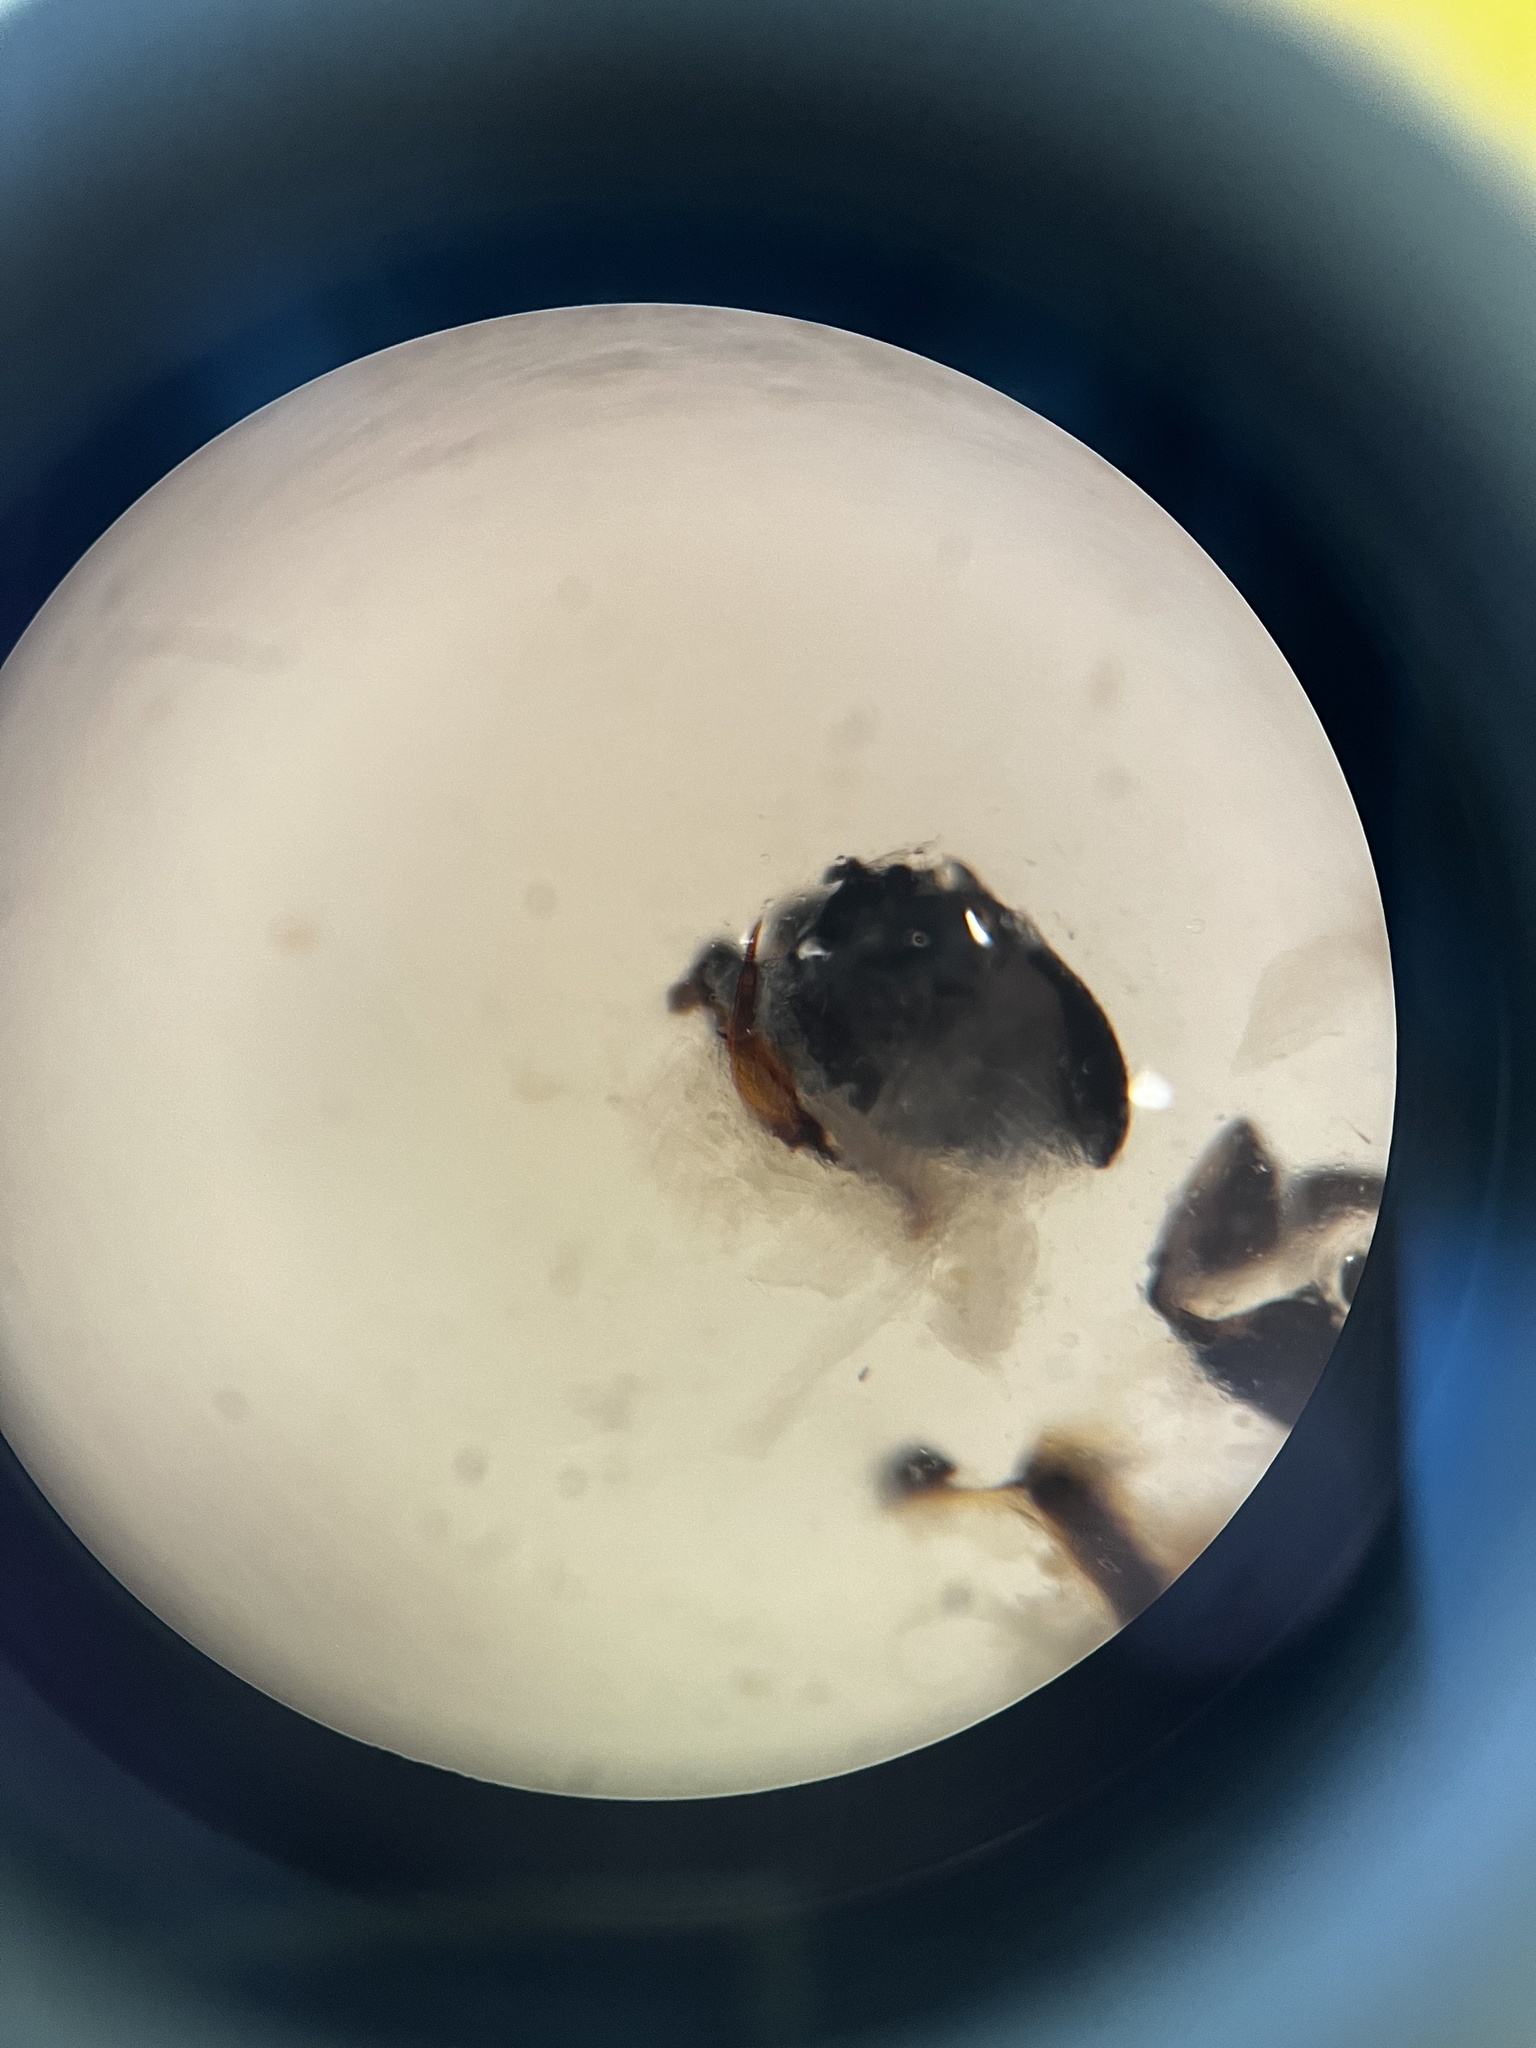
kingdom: Animalia
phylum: Arthropoda
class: Insecta
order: Hemiptera
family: Delphacidae
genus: Laodelphax
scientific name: Laodelphax striatellus
